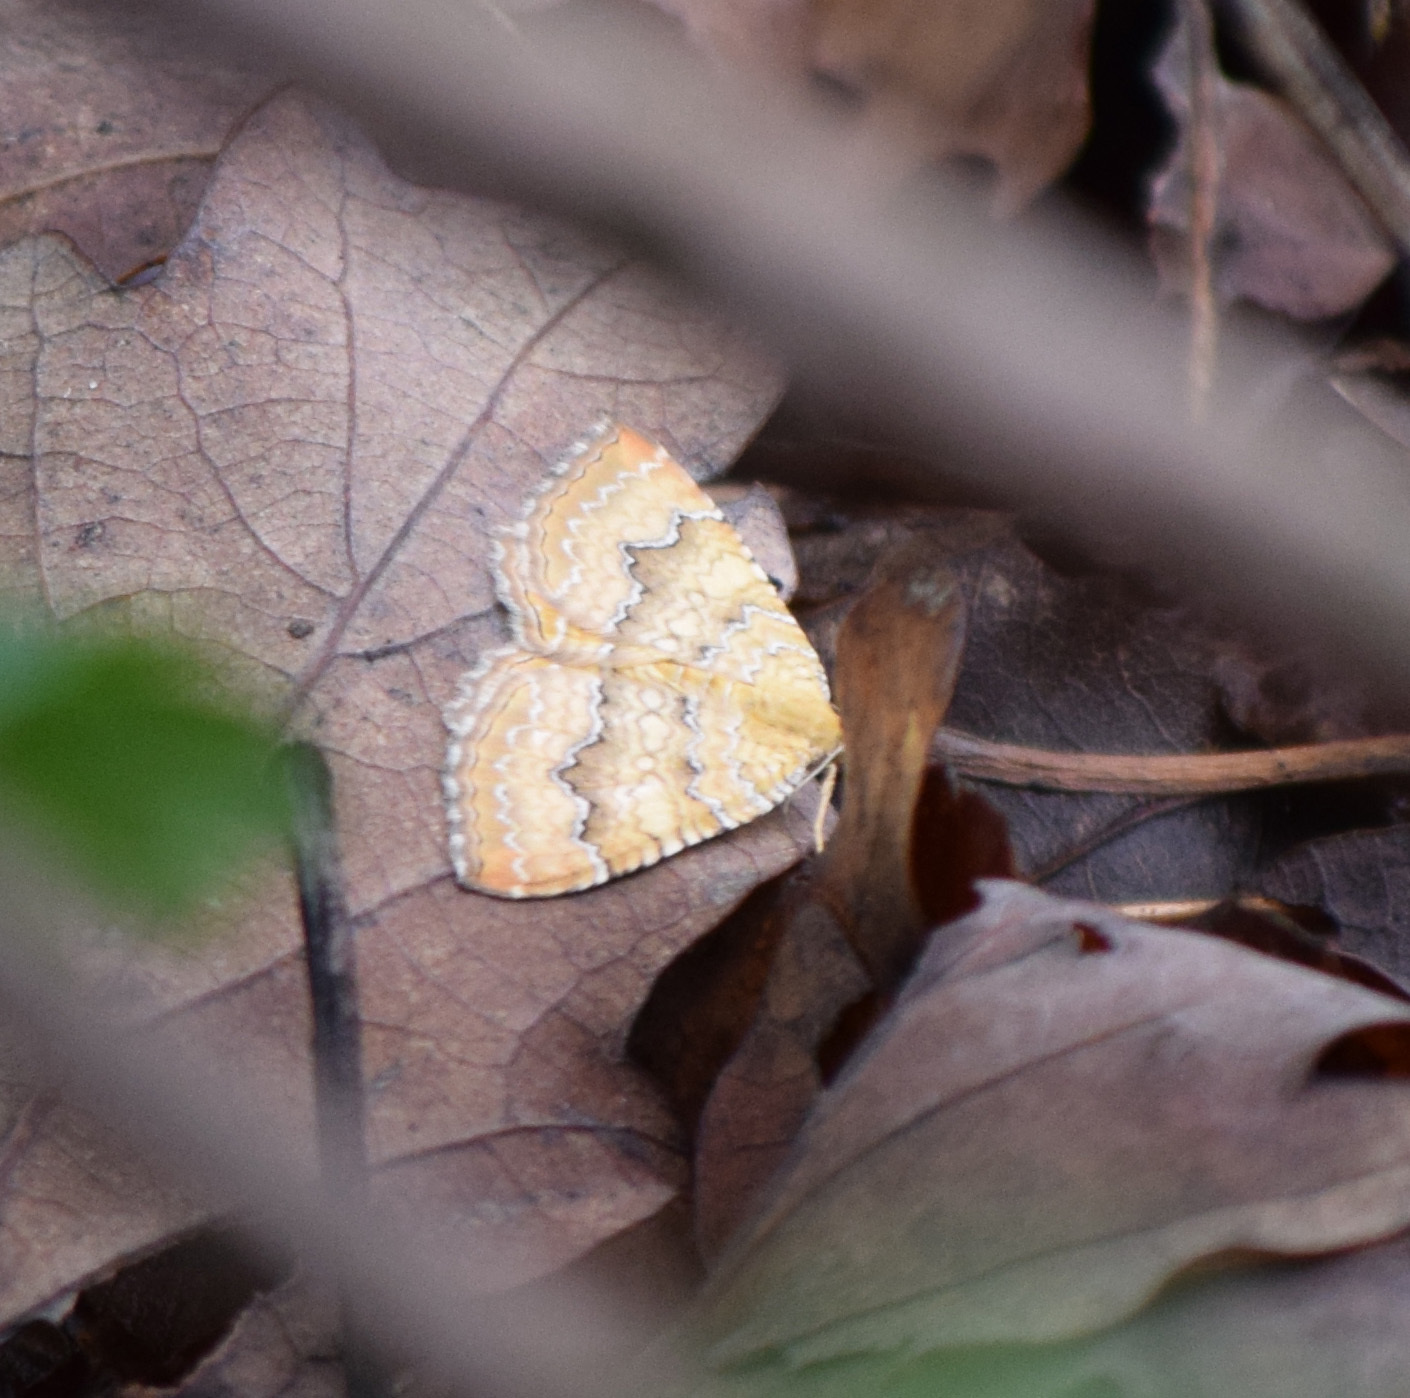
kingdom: Animalia
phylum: Arthropoda
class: Insecta
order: Lepidoptera
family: Geometridae
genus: Camptogramma
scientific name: Camptogramma bilineata
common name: Yellow shell
